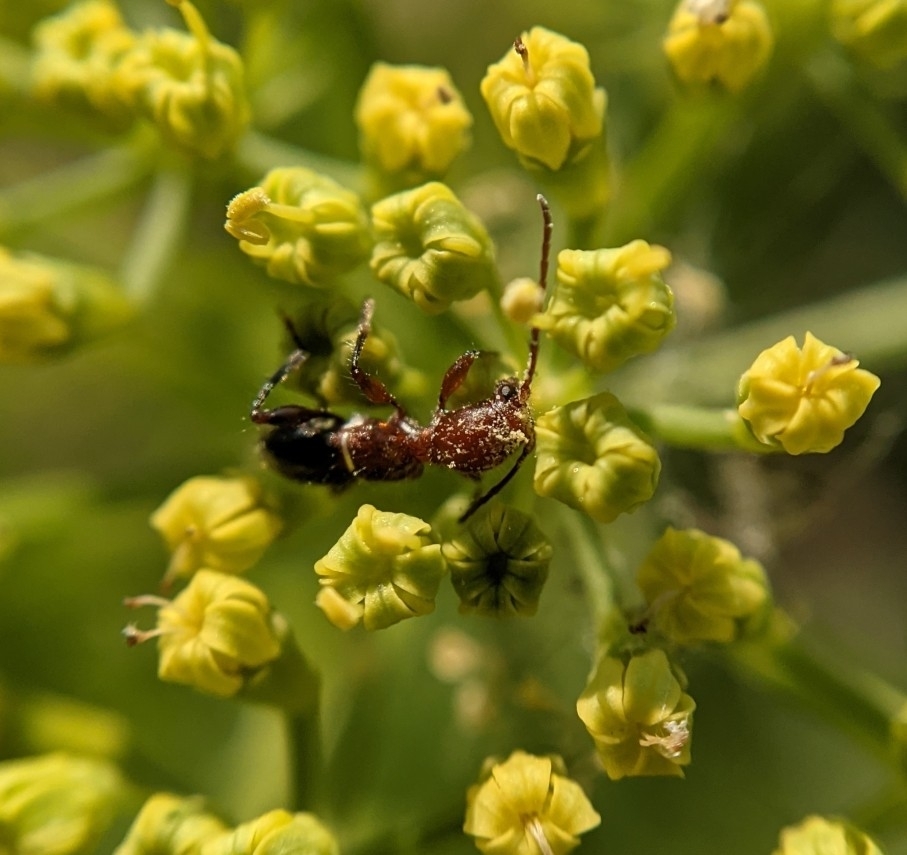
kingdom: Animalia
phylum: Arthropoda
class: Insecta
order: Coleoptera
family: Cerambycidae
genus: Euderces
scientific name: Euderces reichei
